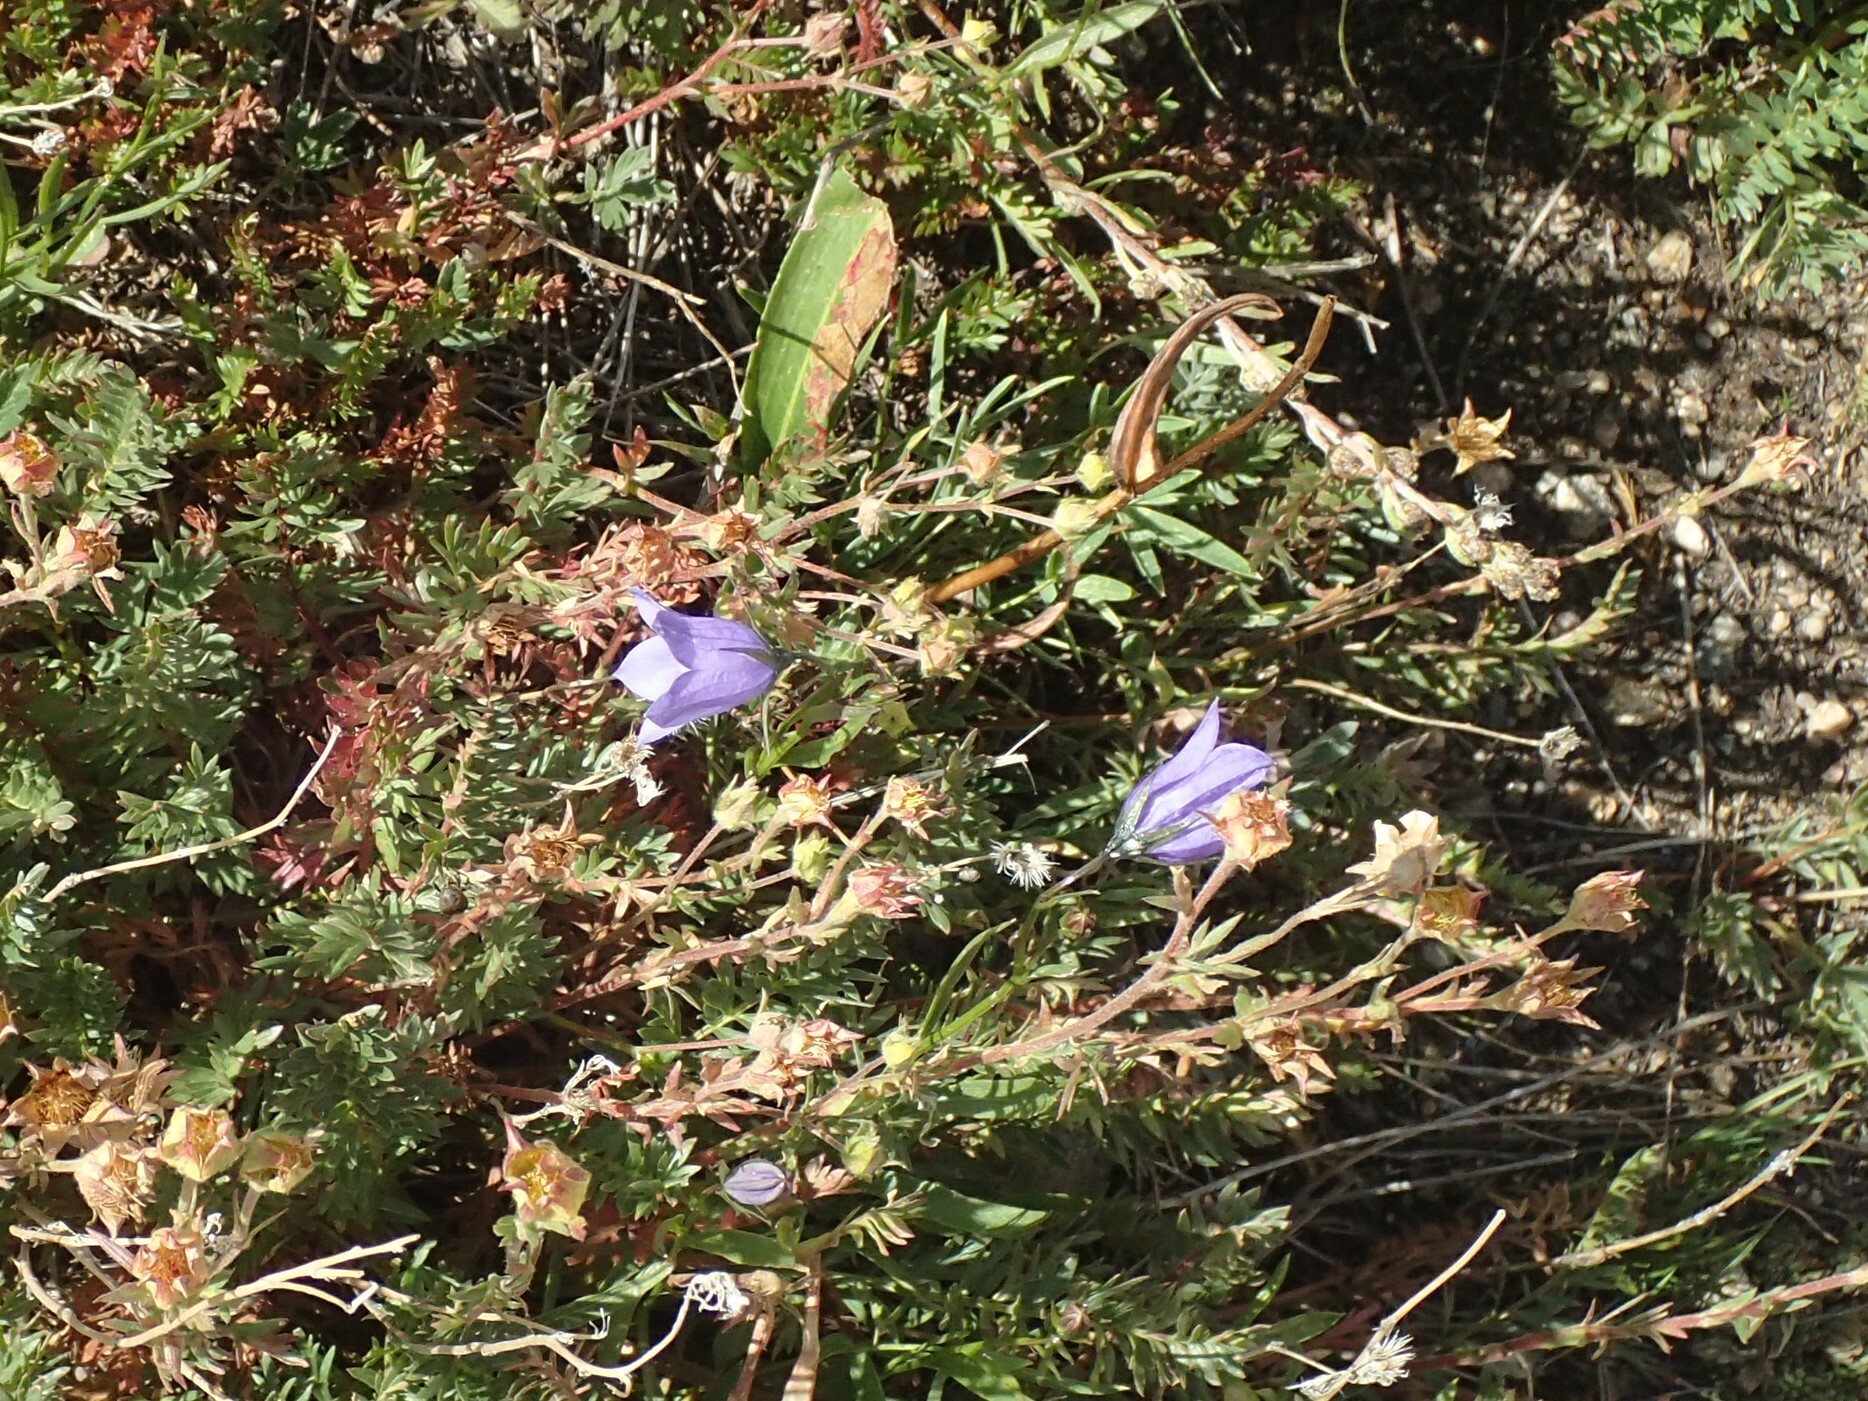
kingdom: Plantae
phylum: Tracheophyta
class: Magnoliopsida
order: Asterales
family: Campanulaceae
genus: Campanula
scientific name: Campanula petiolata
